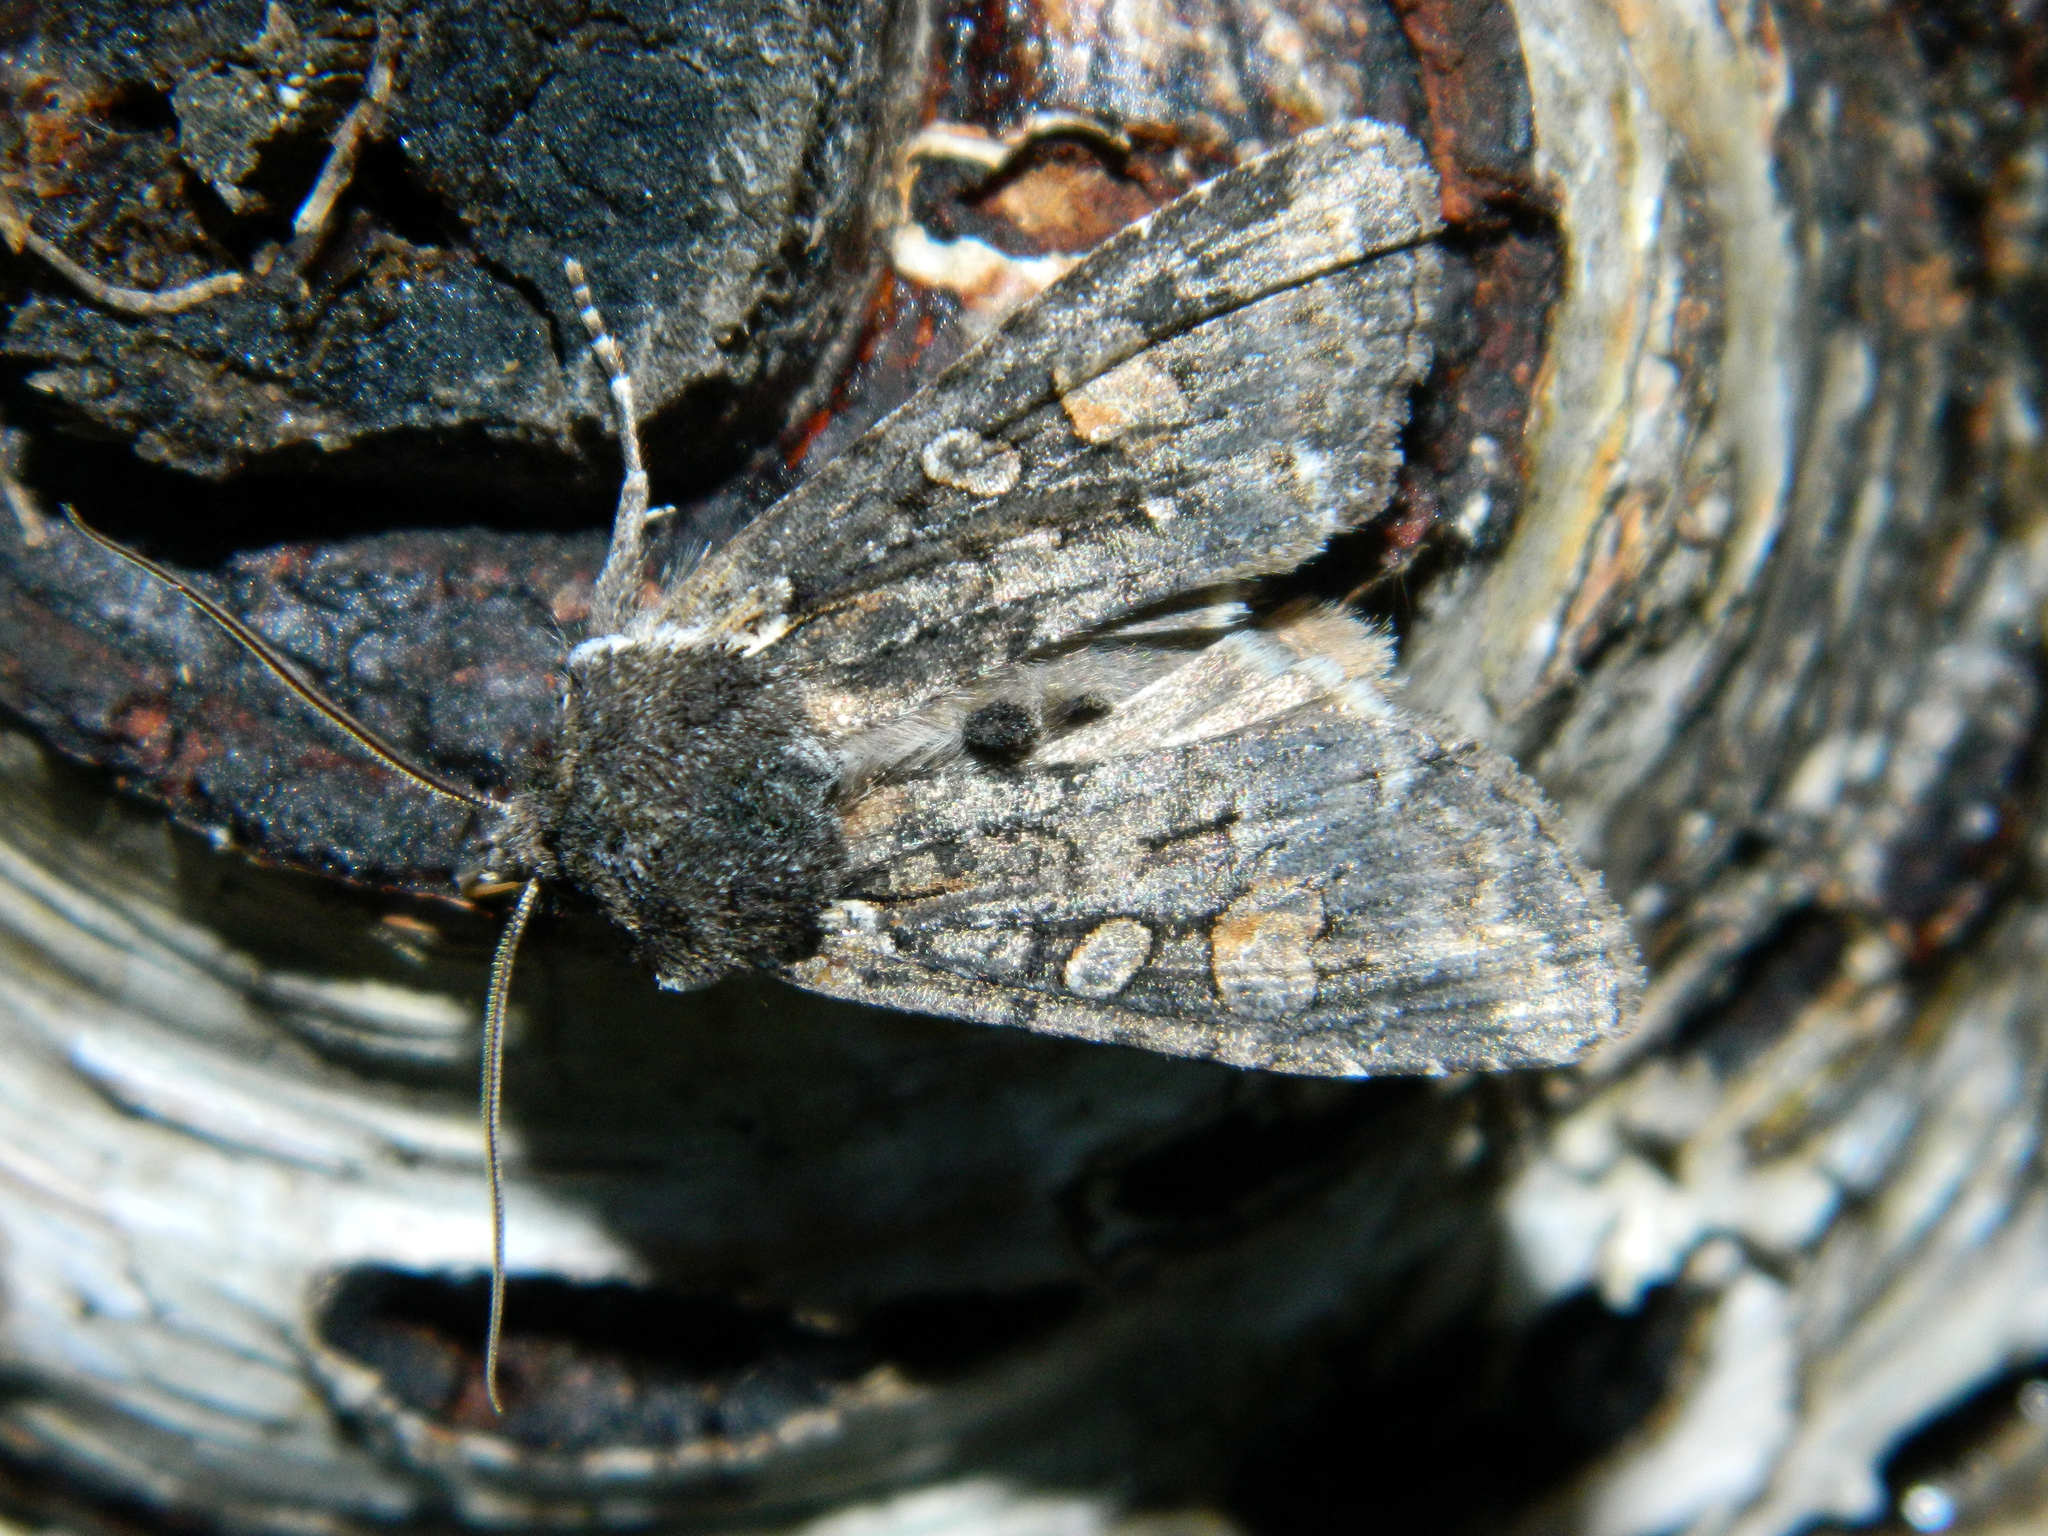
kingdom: Animalia
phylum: Arthropoda
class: Insecta
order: Lepidoptera
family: Noctuidae
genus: Lithophane
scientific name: Lithophane pexata
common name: Plush-naped pinion moth
